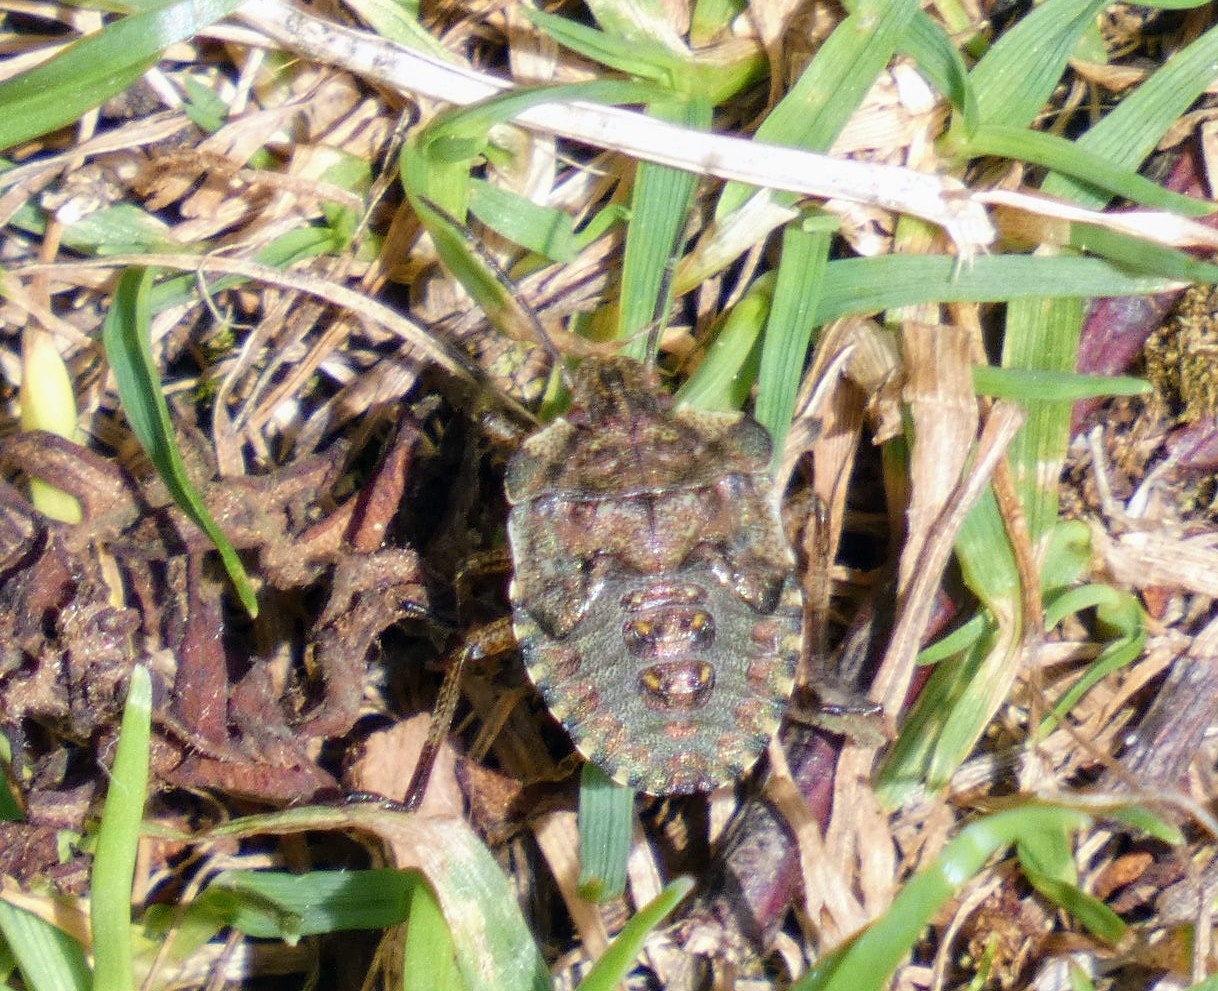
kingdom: Animalia
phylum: Arthropoda
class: Insecta
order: Hemiptera
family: Pentatomidae
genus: Pentatoma
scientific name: Pentatoma rufipes
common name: Forest bug
